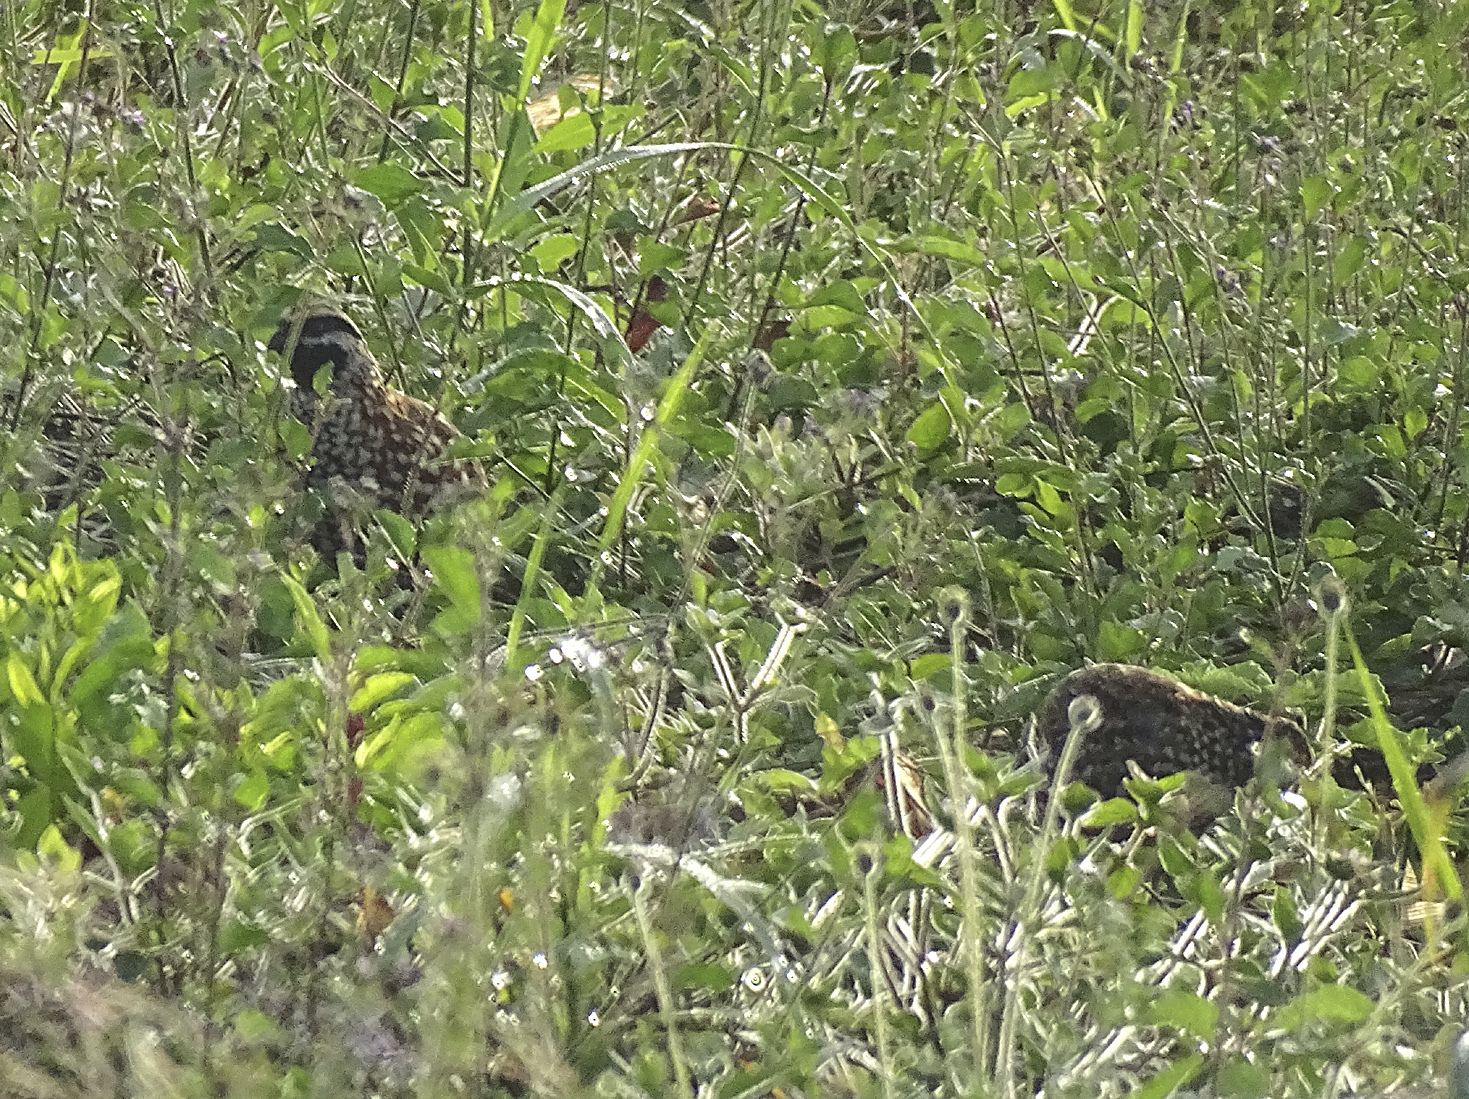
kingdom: Animalia
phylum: Chordata
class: Aves
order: Galliformes
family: Odontophoridae
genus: Colinus
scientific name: Colinus nigrogularis
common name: Yucatan bobwhite
